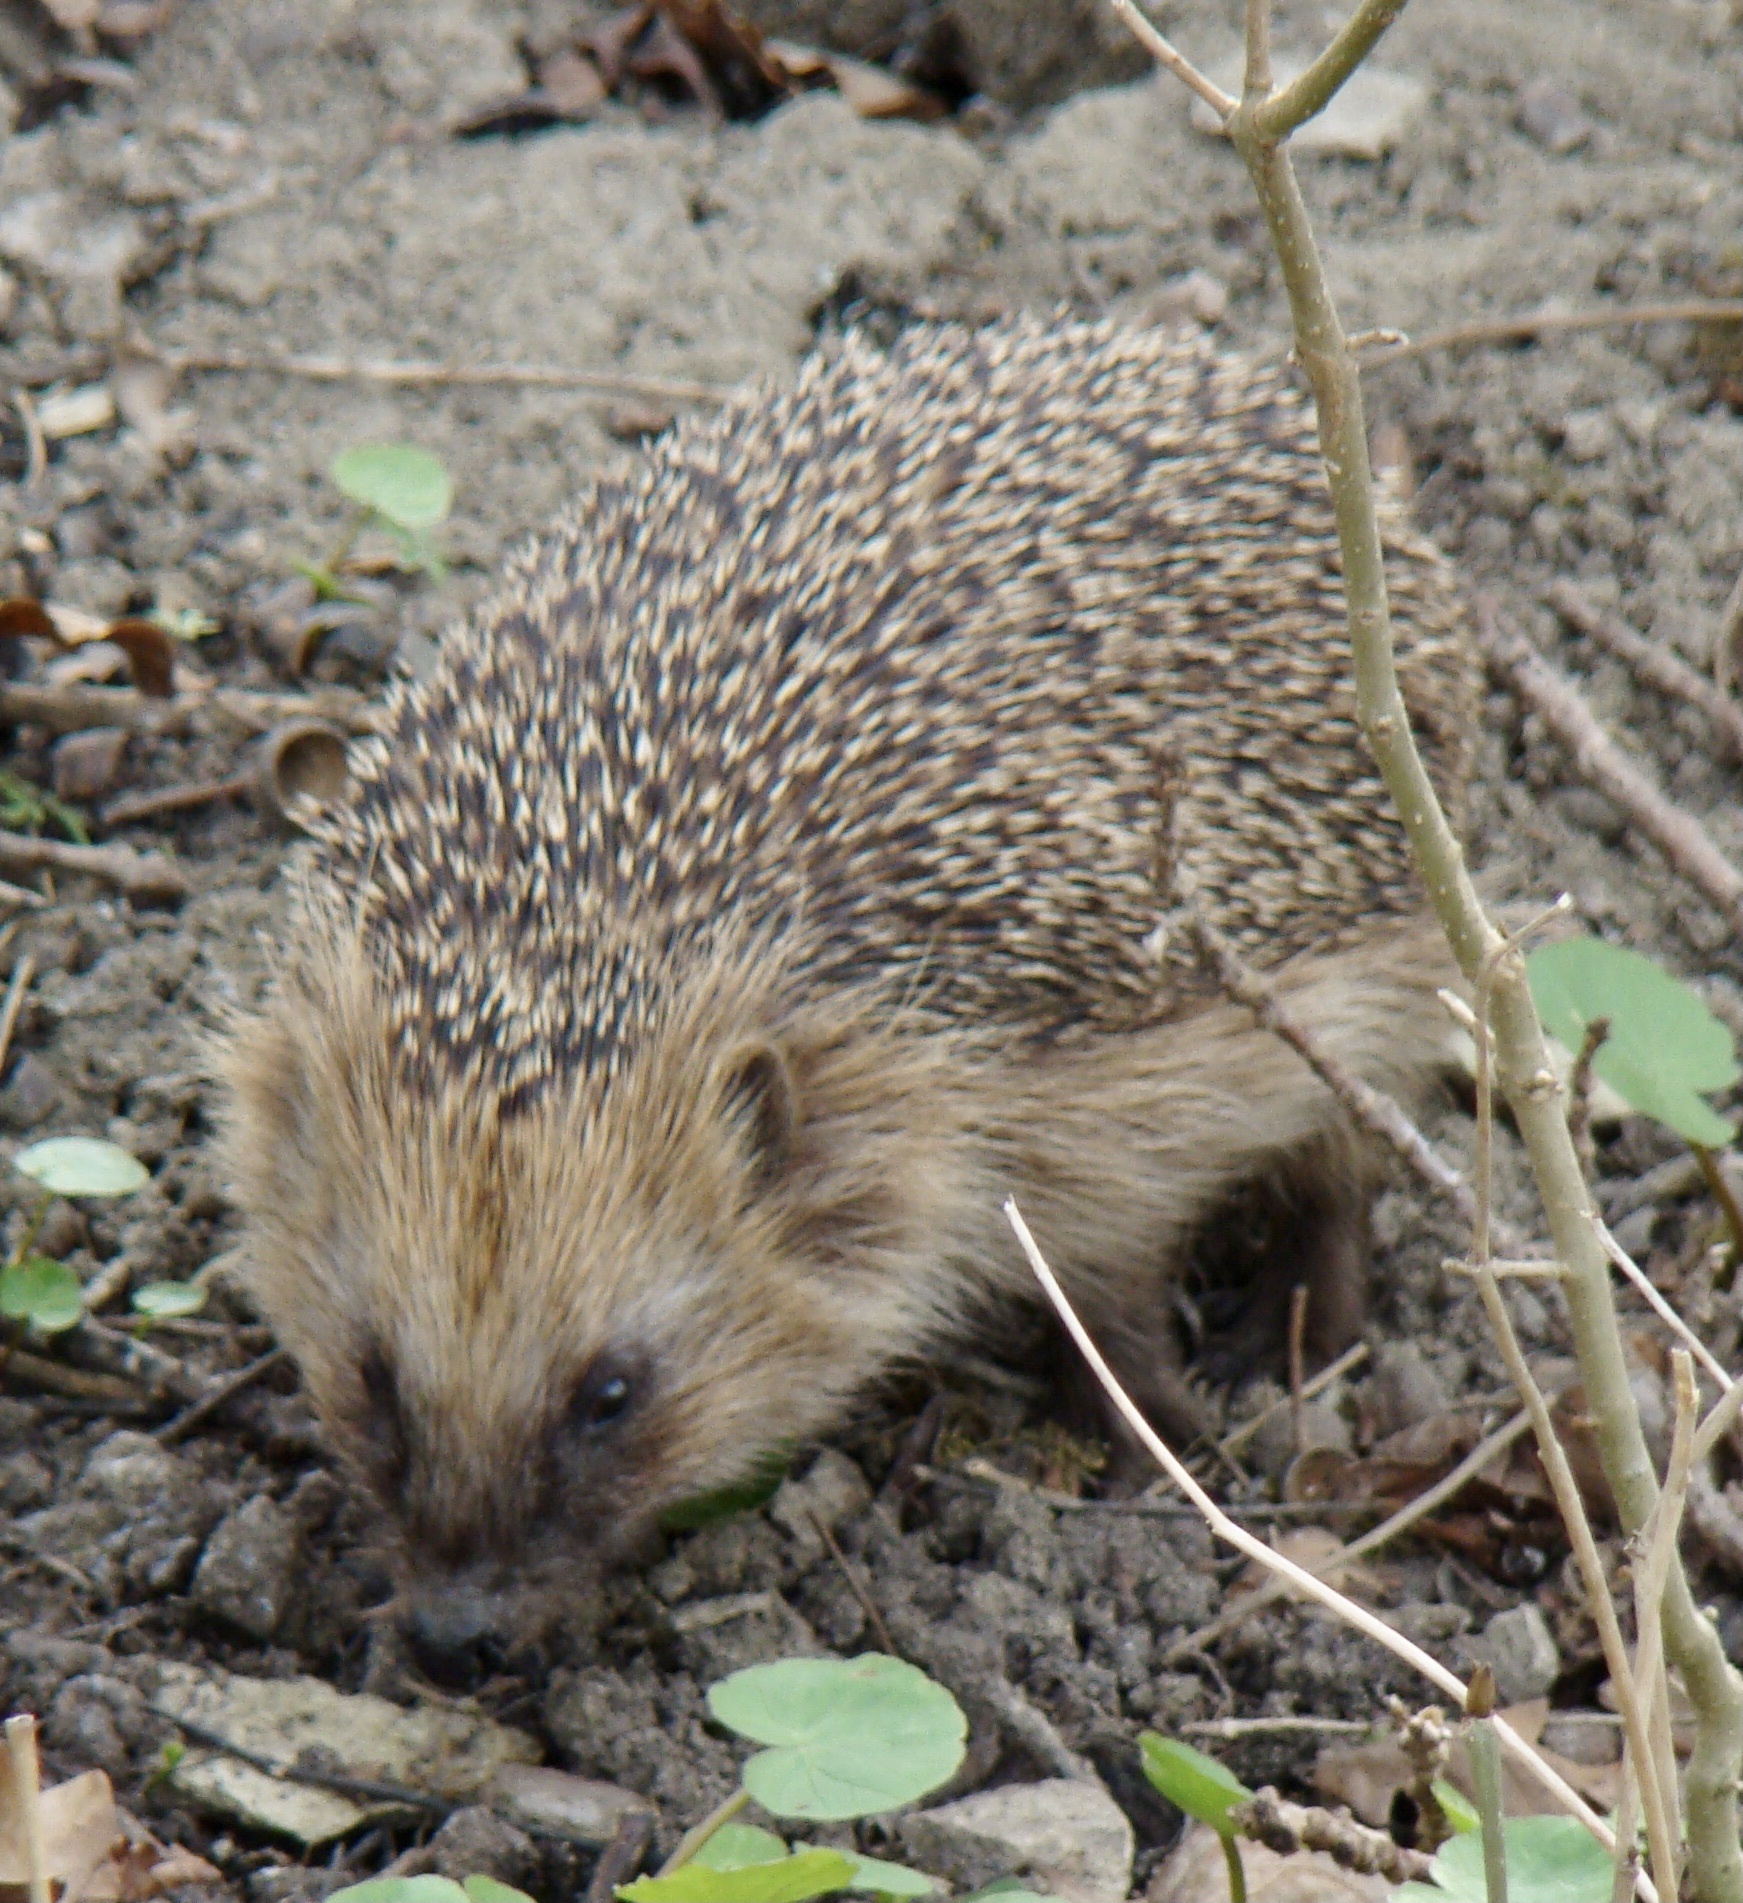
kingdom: Animalia
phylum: Chordata
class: Mammalia
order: Erinaceomorpha
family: Erinaceidae
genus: Erinaceus
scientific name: Erinaceus europaeus
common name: West european hedgehog
